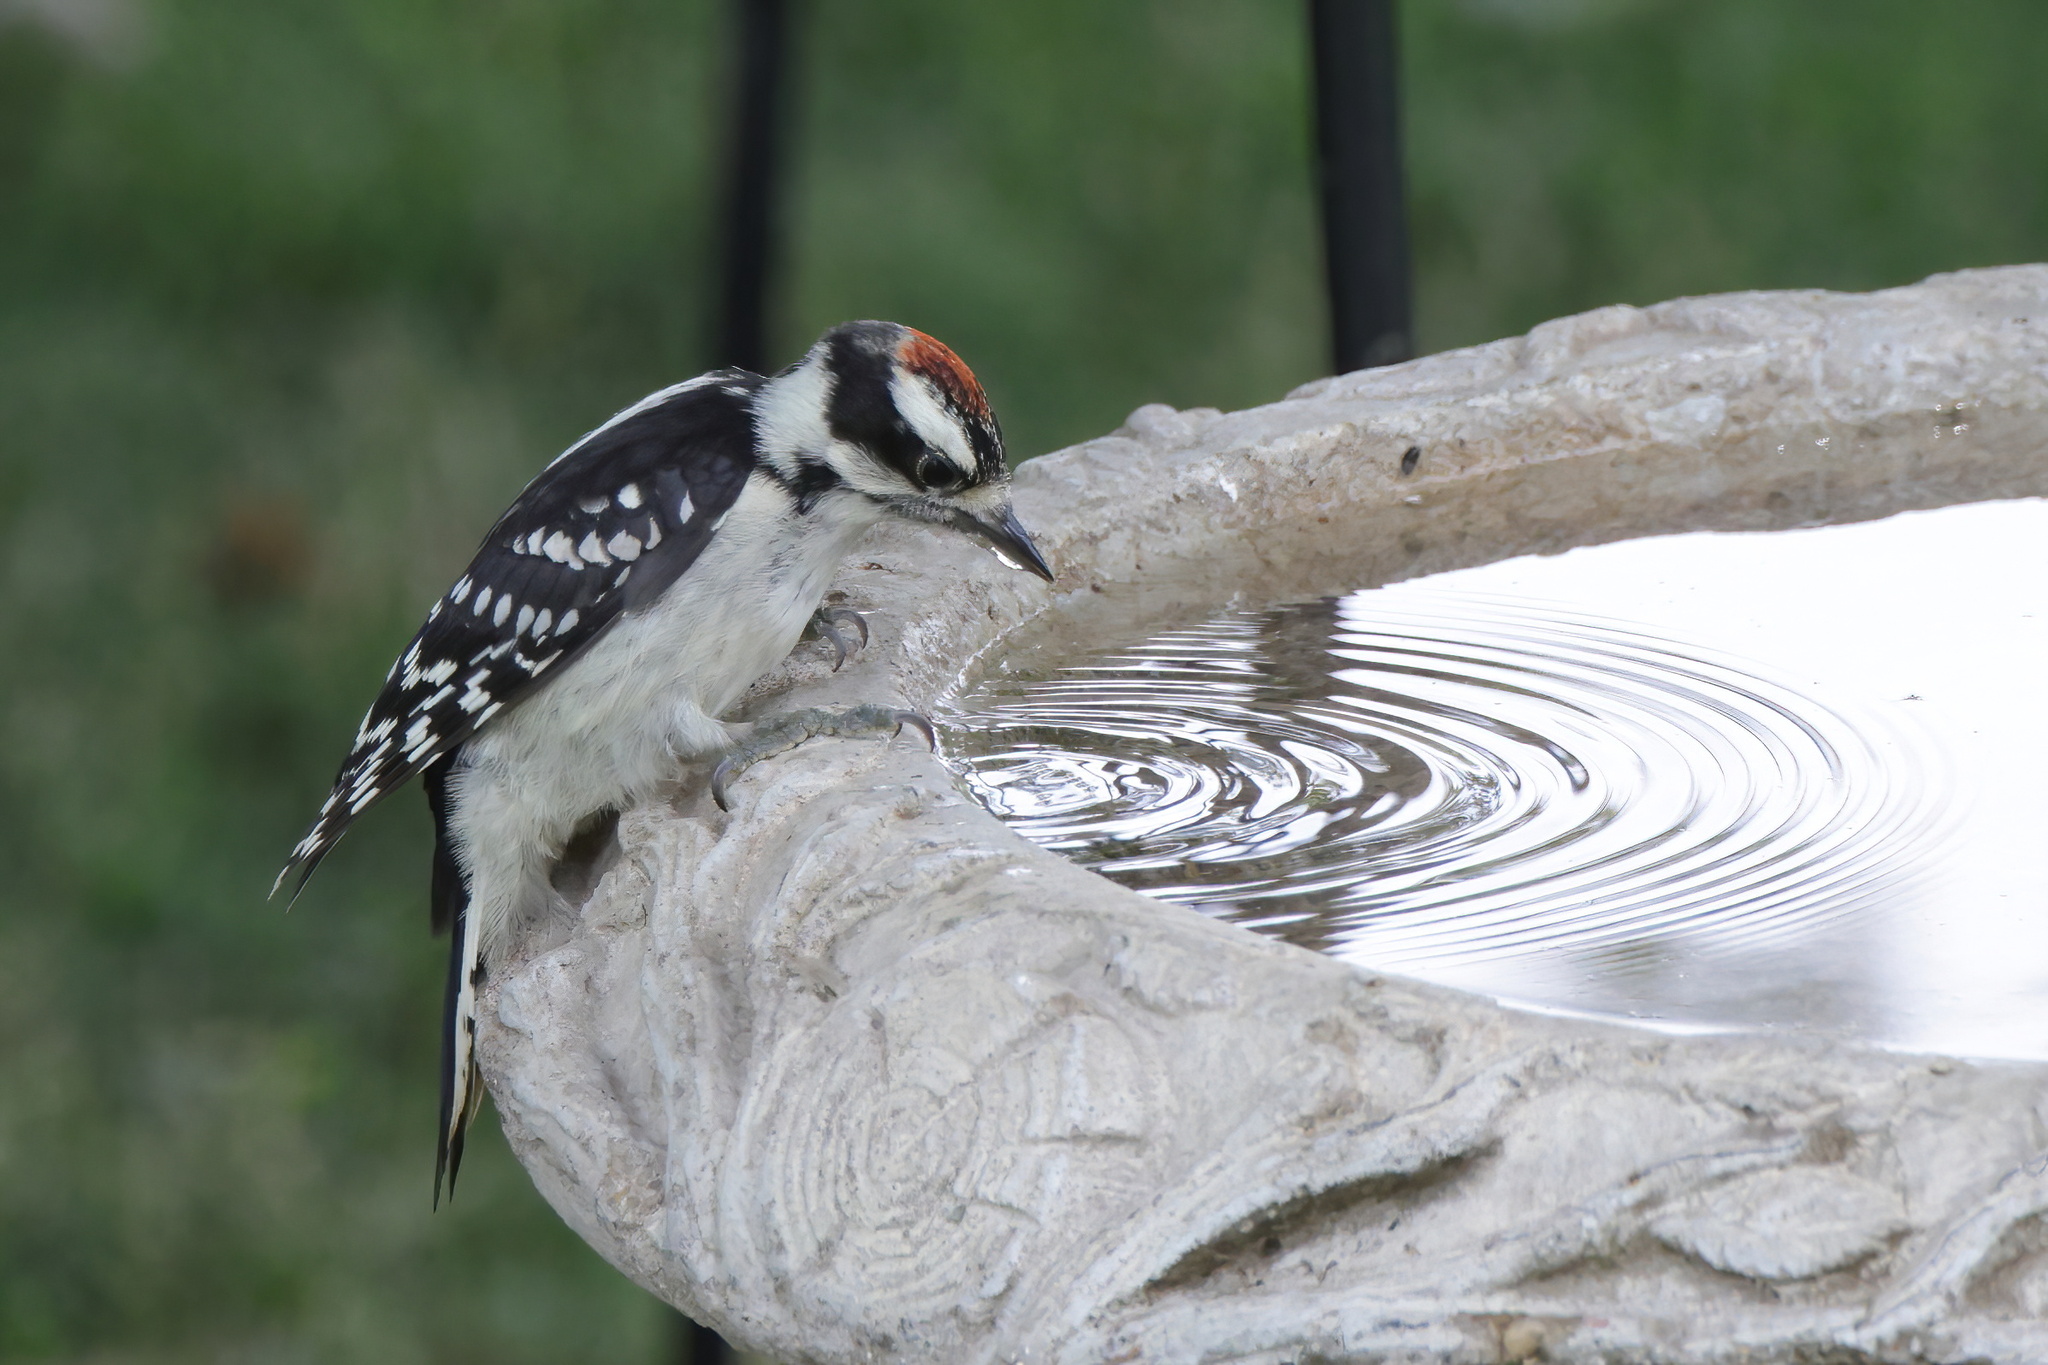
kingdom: Animalia
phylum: Chordata
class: Aves
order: Piciformes
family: Picidae
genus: Dryobates
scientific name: Dryobates pubescens
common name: Downy woodpecker
